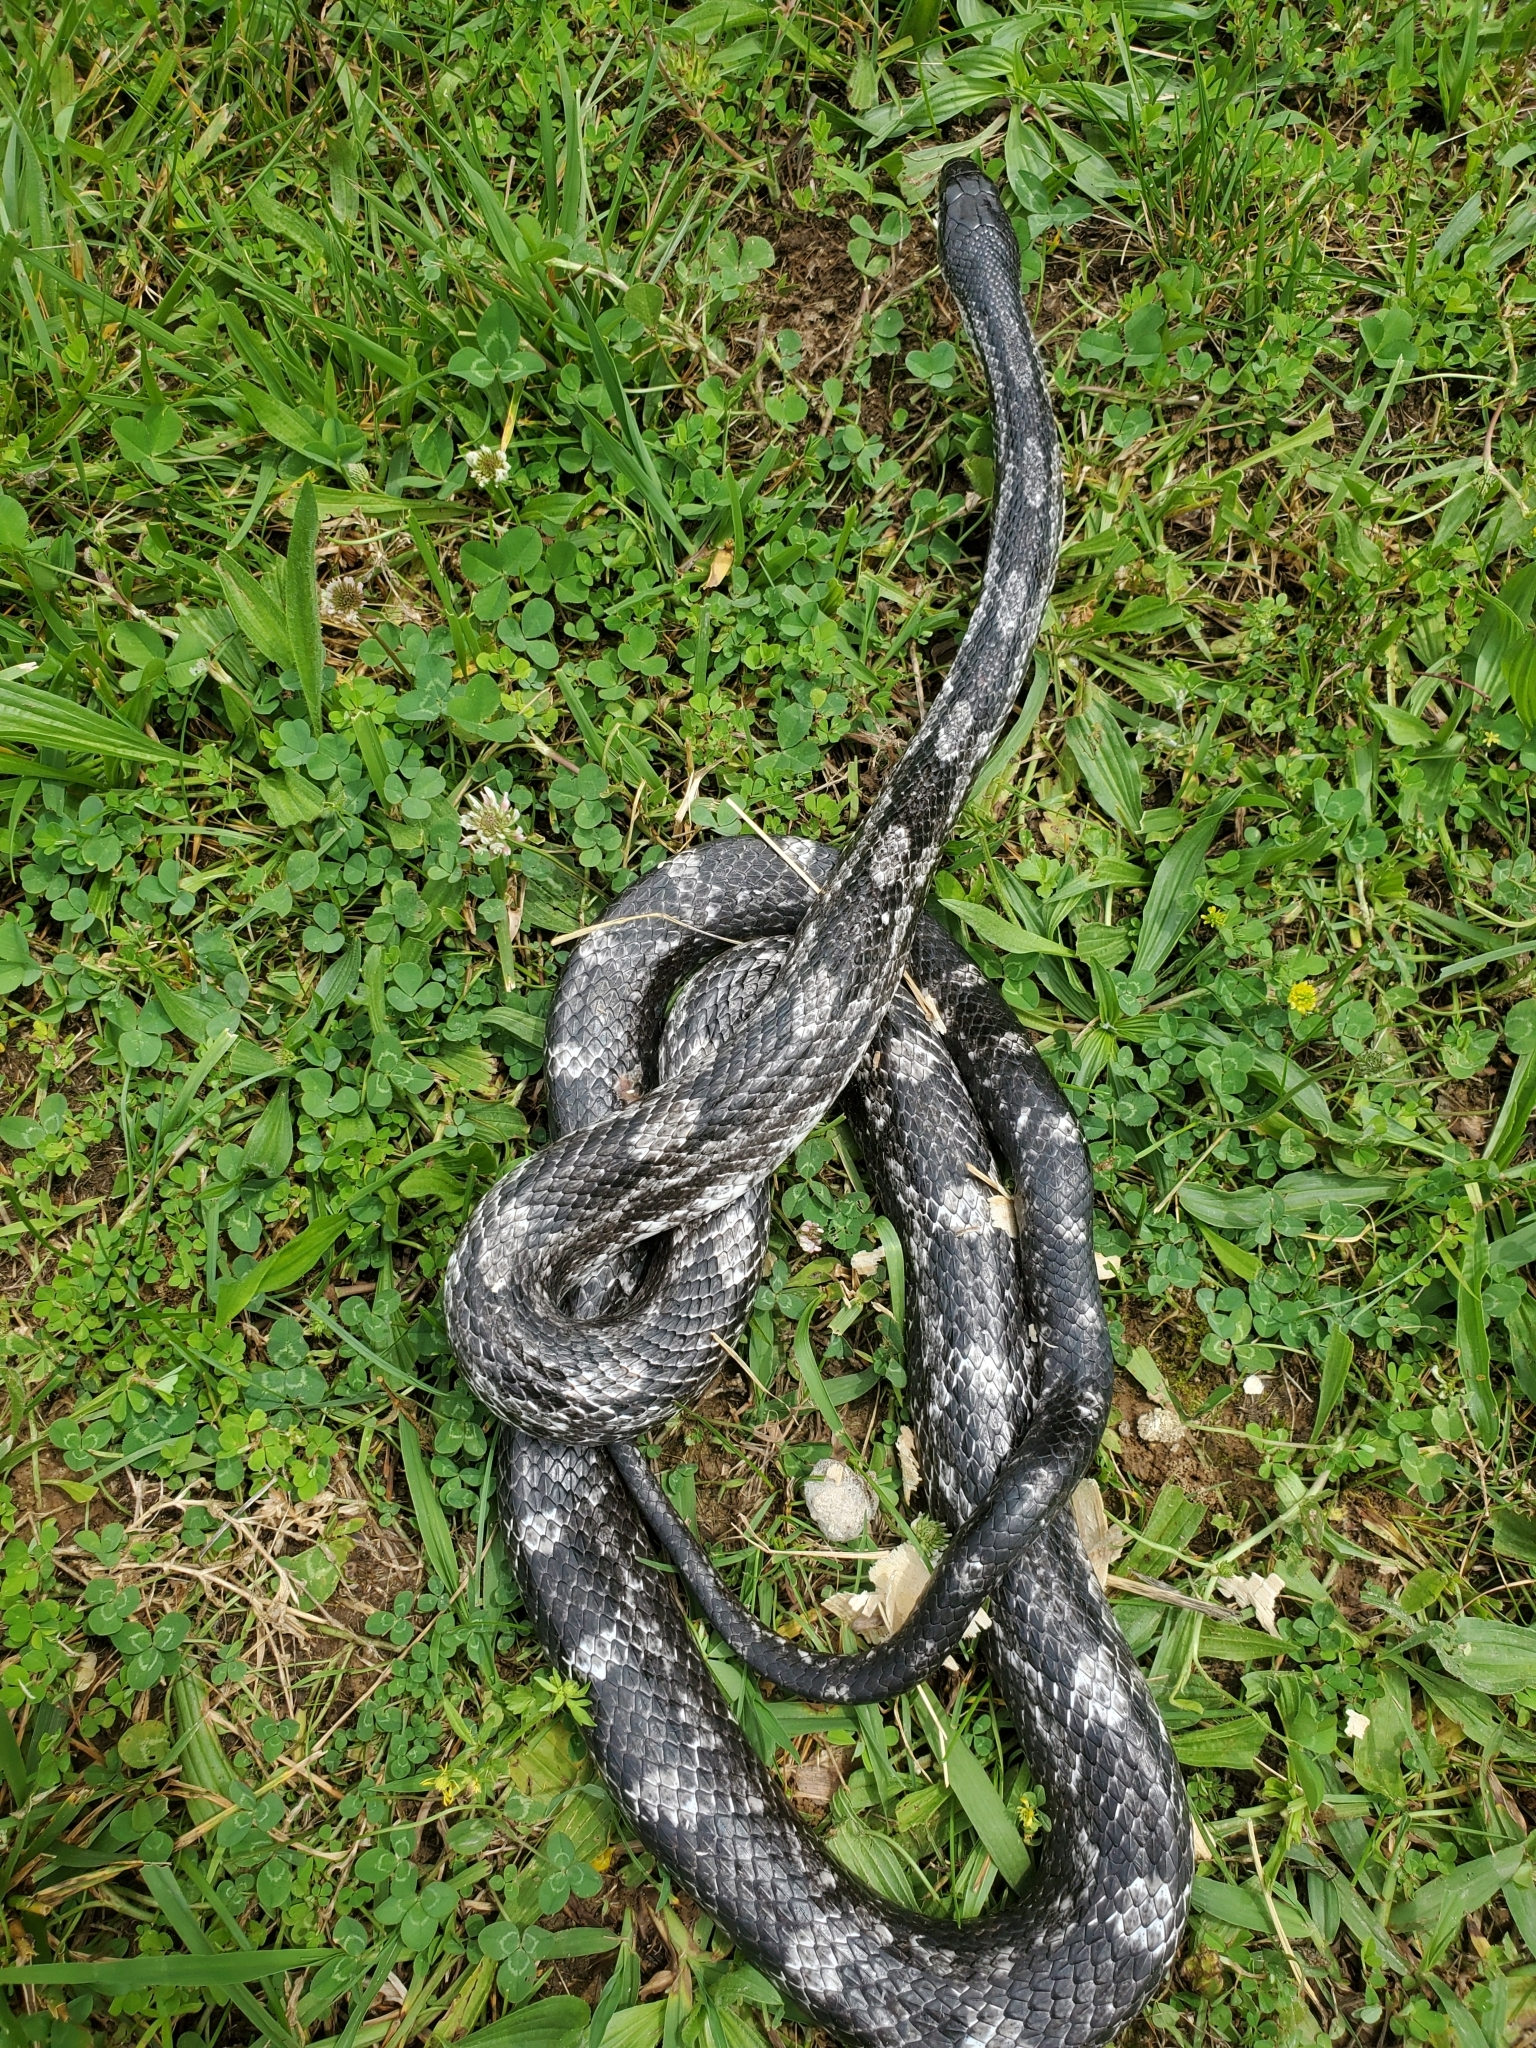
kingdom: Animalia
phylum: Chordata
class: Squamata
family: Colubridae
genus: Pantherophis
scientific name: Pantherophis spiloides
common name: Gray rat snake
